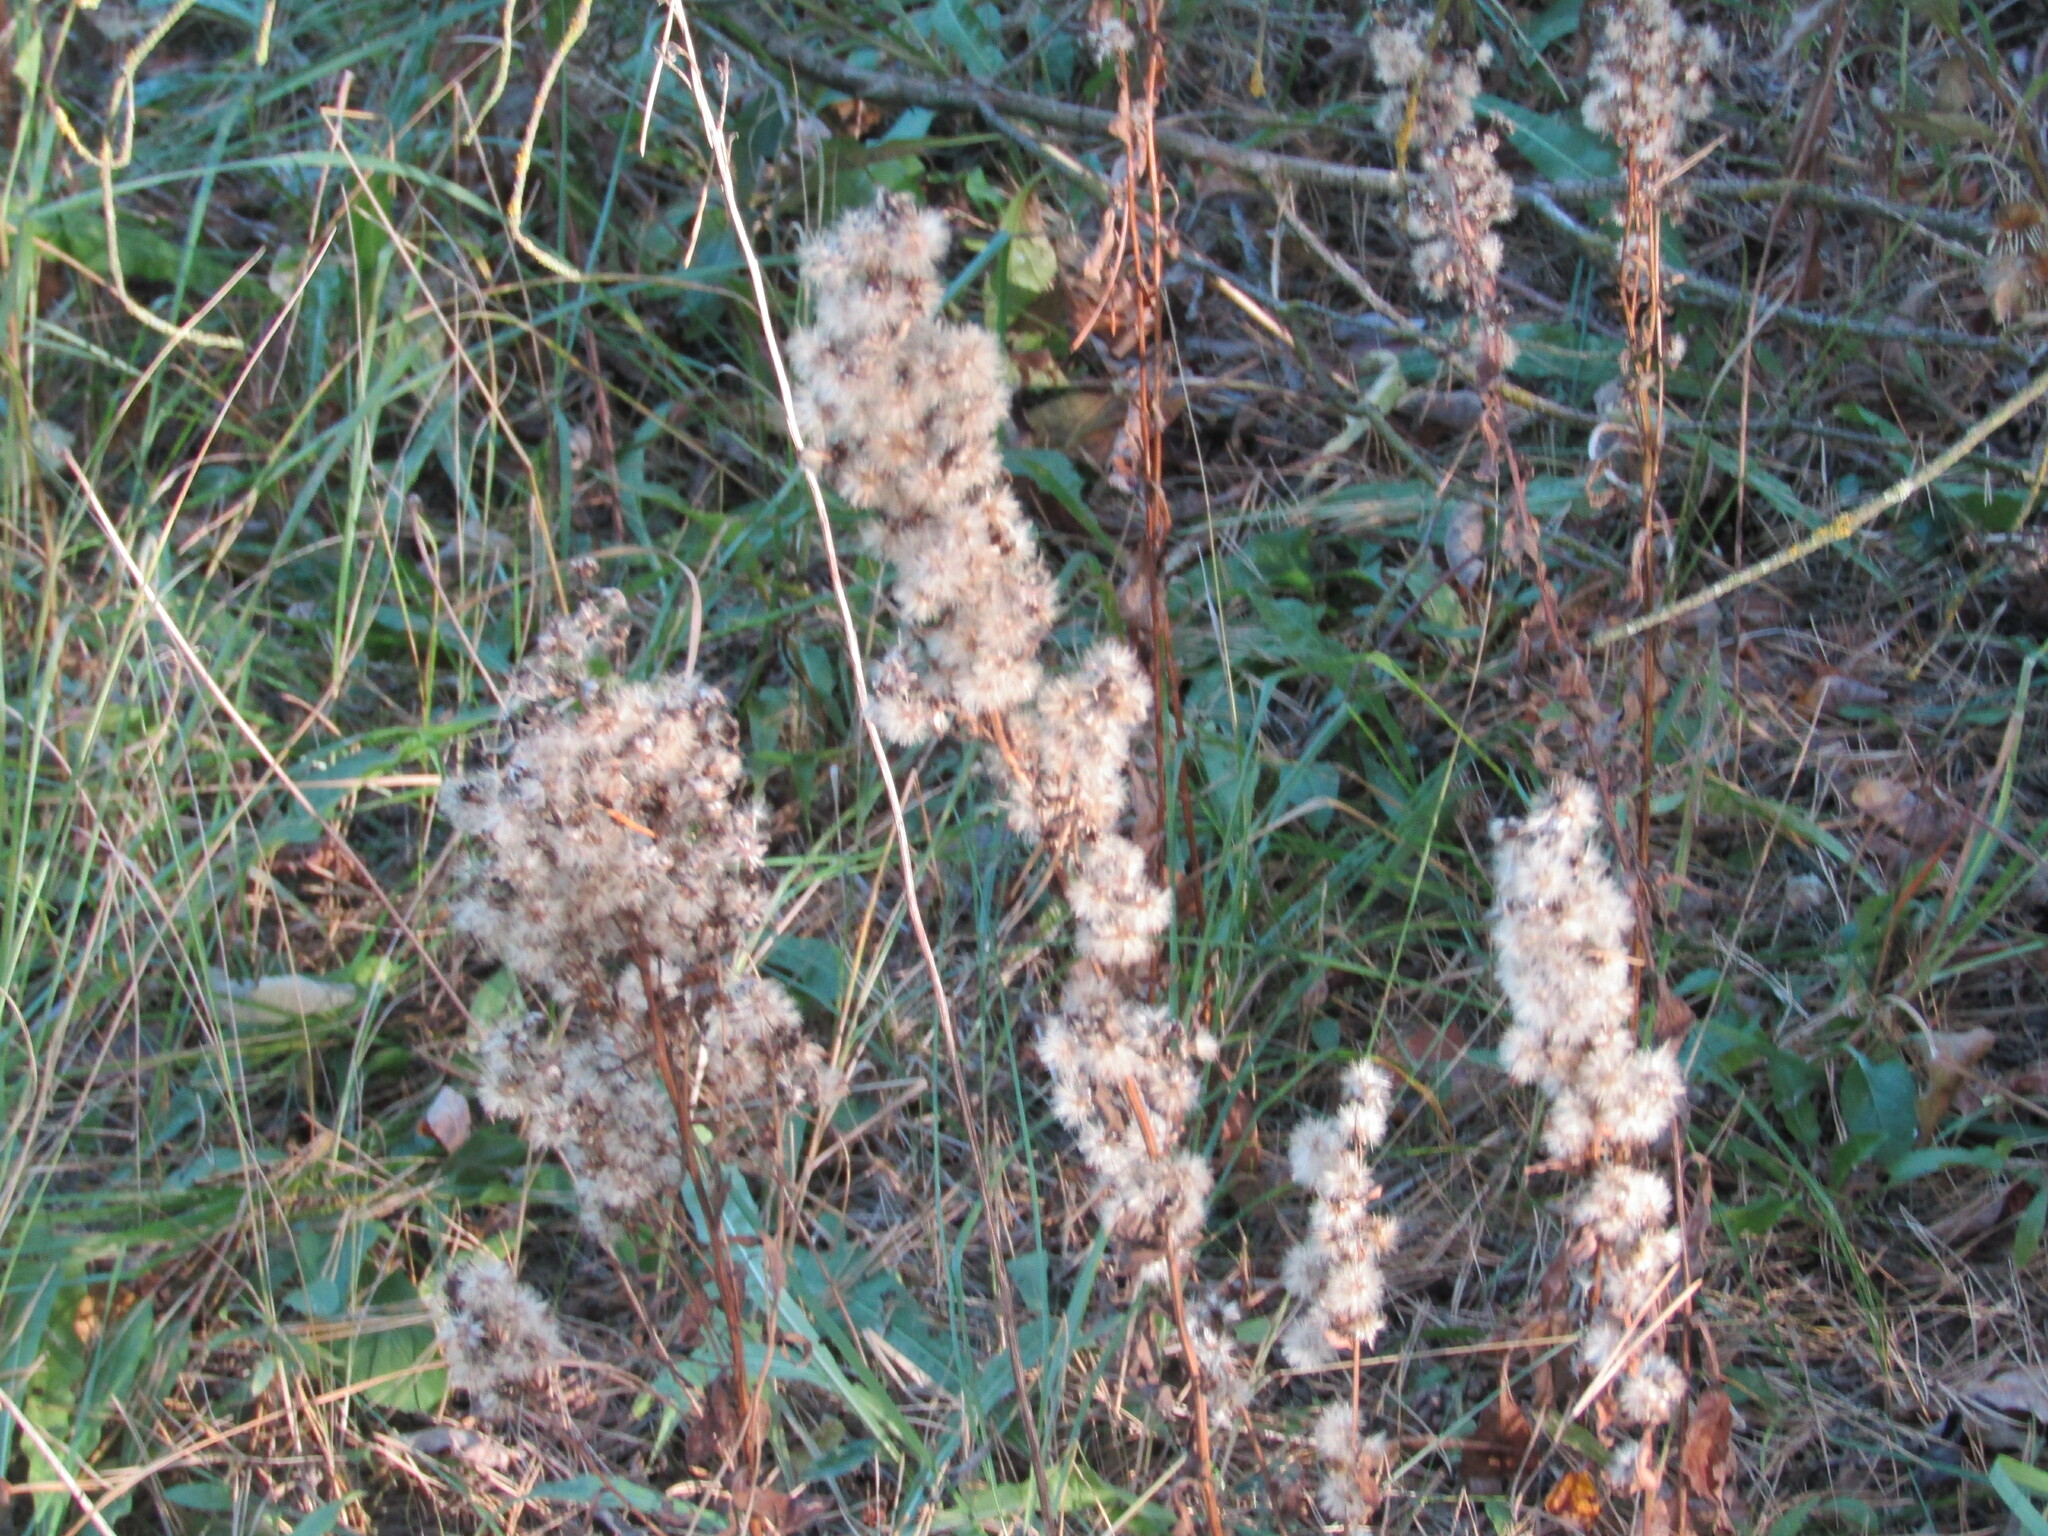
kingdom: Plantae
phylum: Tracheophyta
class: Magnoliopsida
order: Asterales
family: Asteraceae
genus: Solidago
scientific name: Solidago virgaurea
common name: Goldenrod
